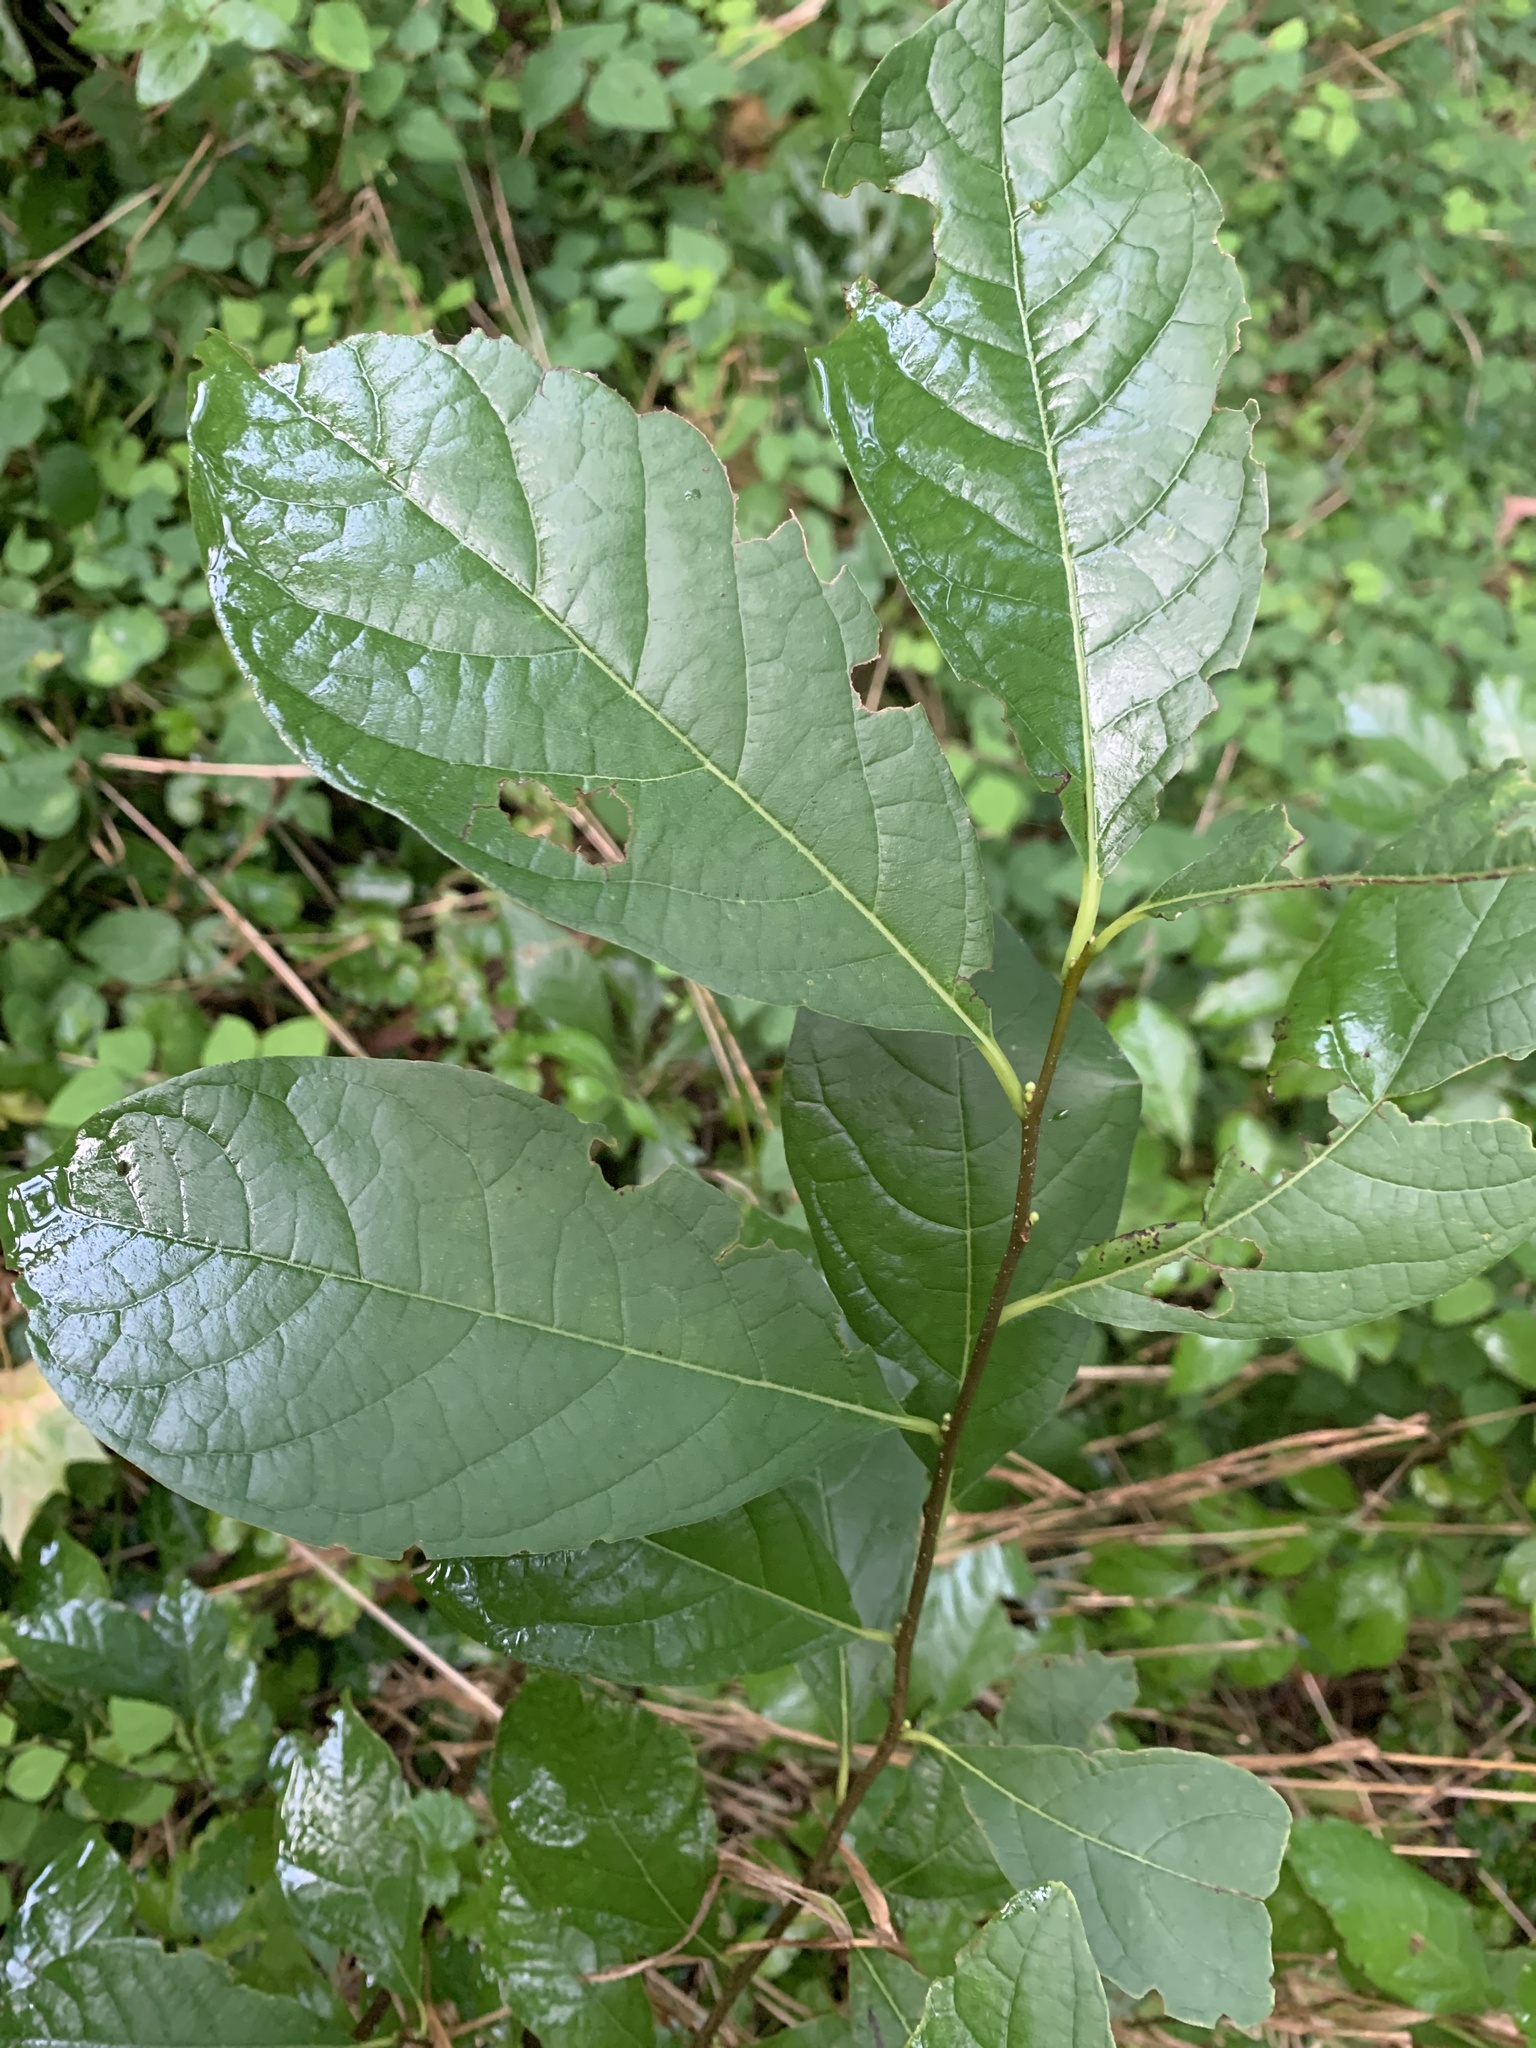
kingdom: Plantae
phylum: Tracheophyta
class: Magnoliopsida
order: Laurales
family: Lauraceae
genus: Lindera
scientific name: Lindera benzoin
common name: Spicebush
